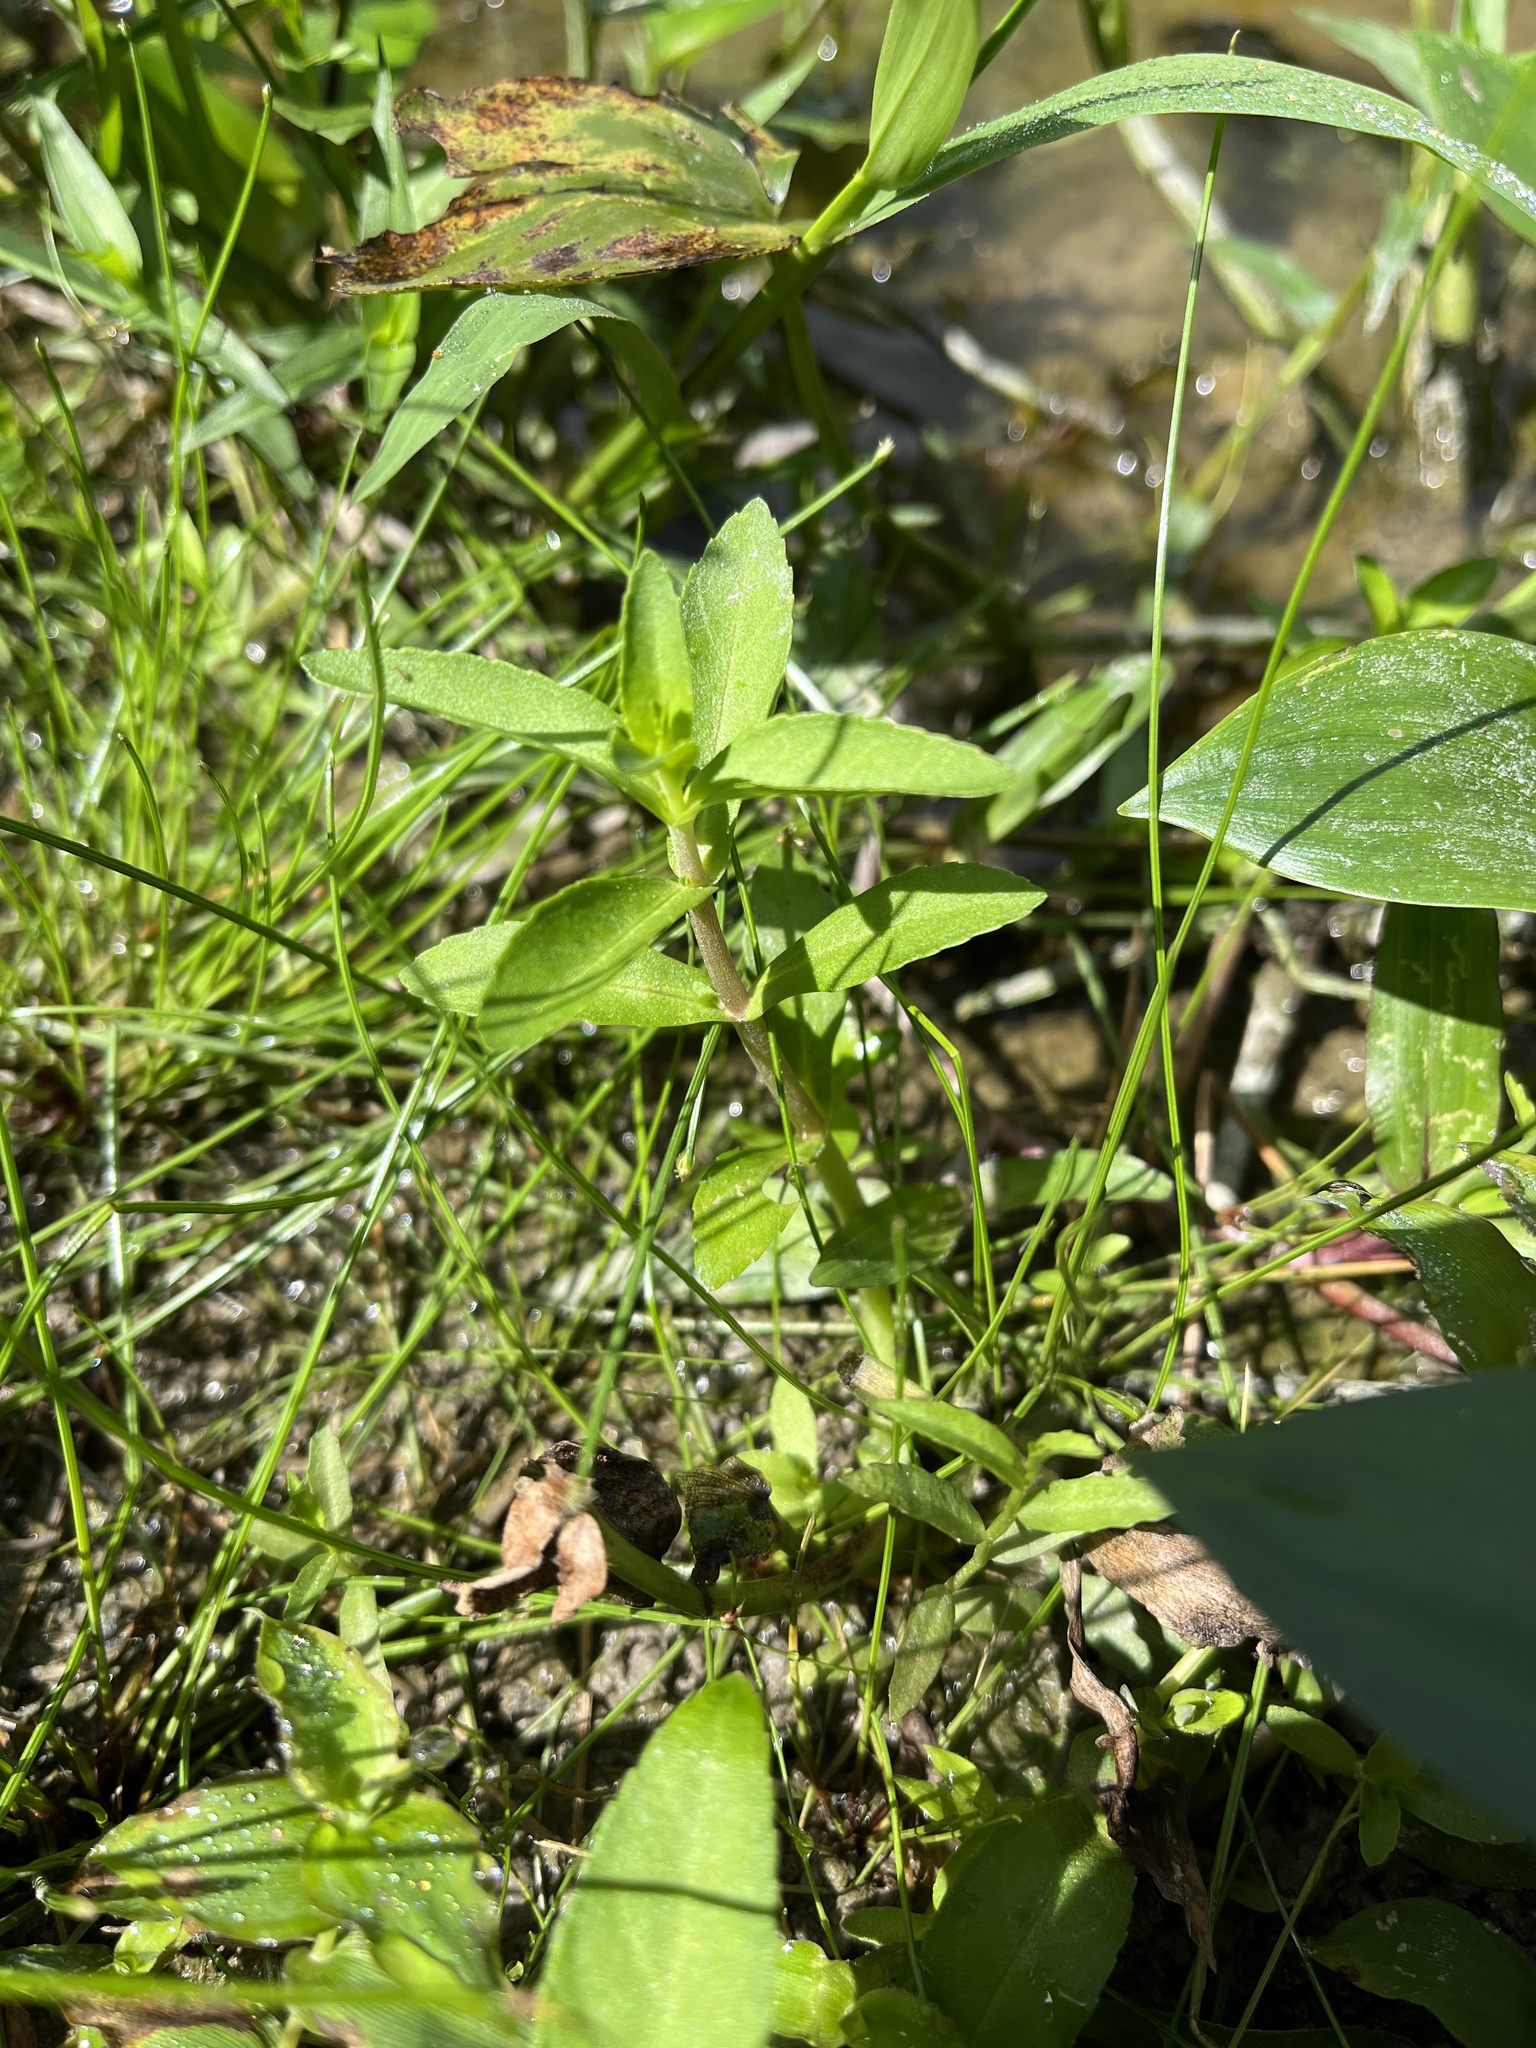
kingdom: Plantae
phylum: Tracheophyta
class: Magnoliopsida
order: Lamiales
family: Plantaginaceae
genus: Limnophila
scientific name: Limnophila aromatica
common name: Finger grass
